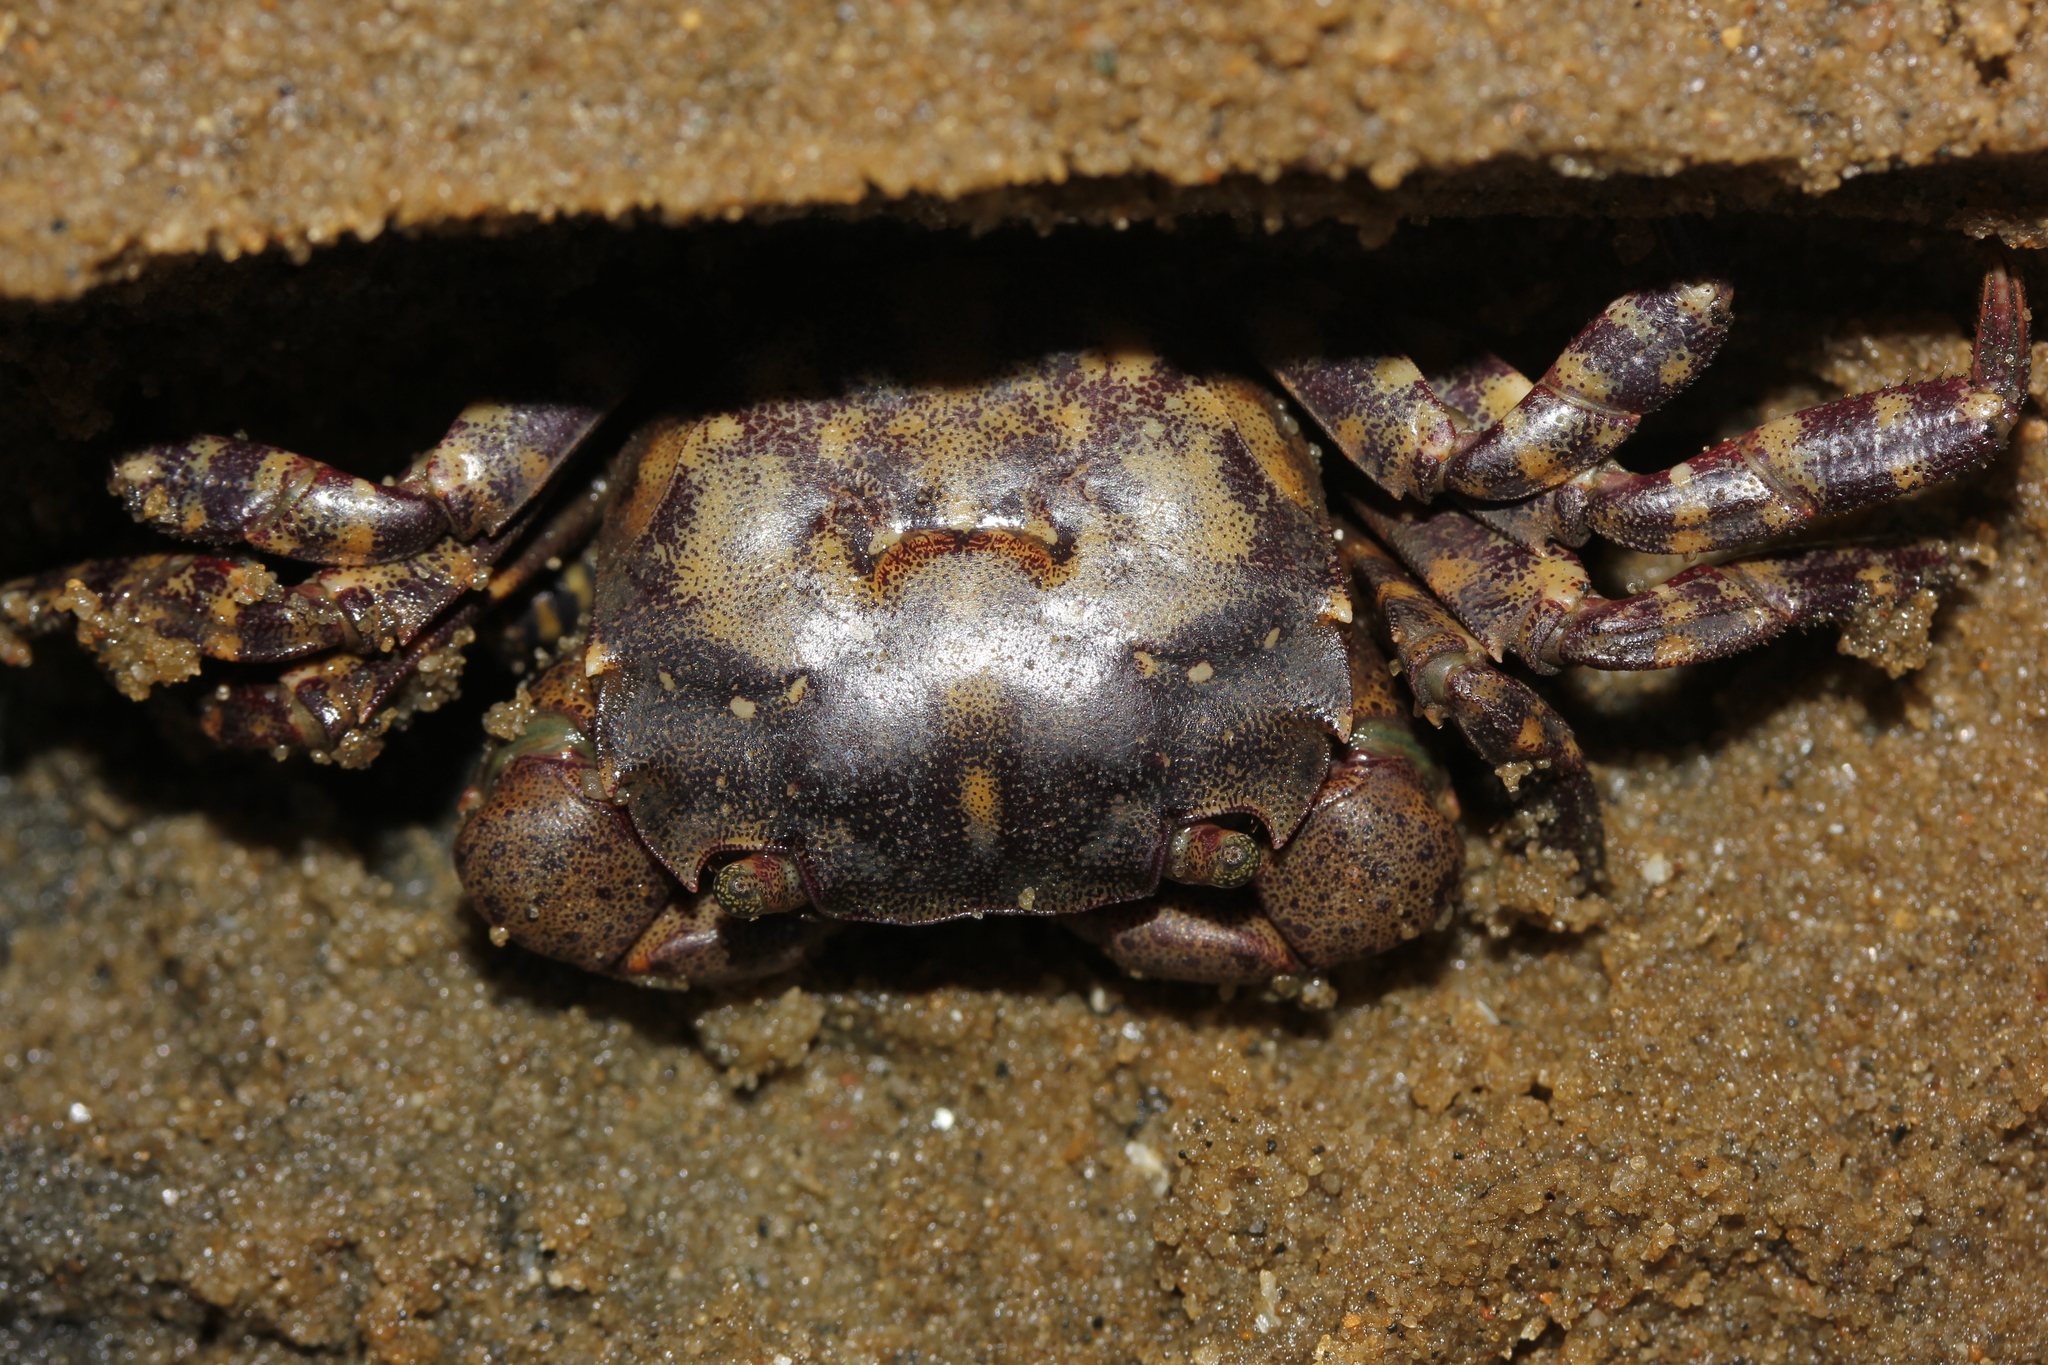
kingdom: Animalia
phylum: Arthropoda
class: Malacostraca
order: Decapoda
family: Varunidae
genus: Hemigrapsus
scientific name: Hemigrapsus sanguineus
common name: Asian shore crab
